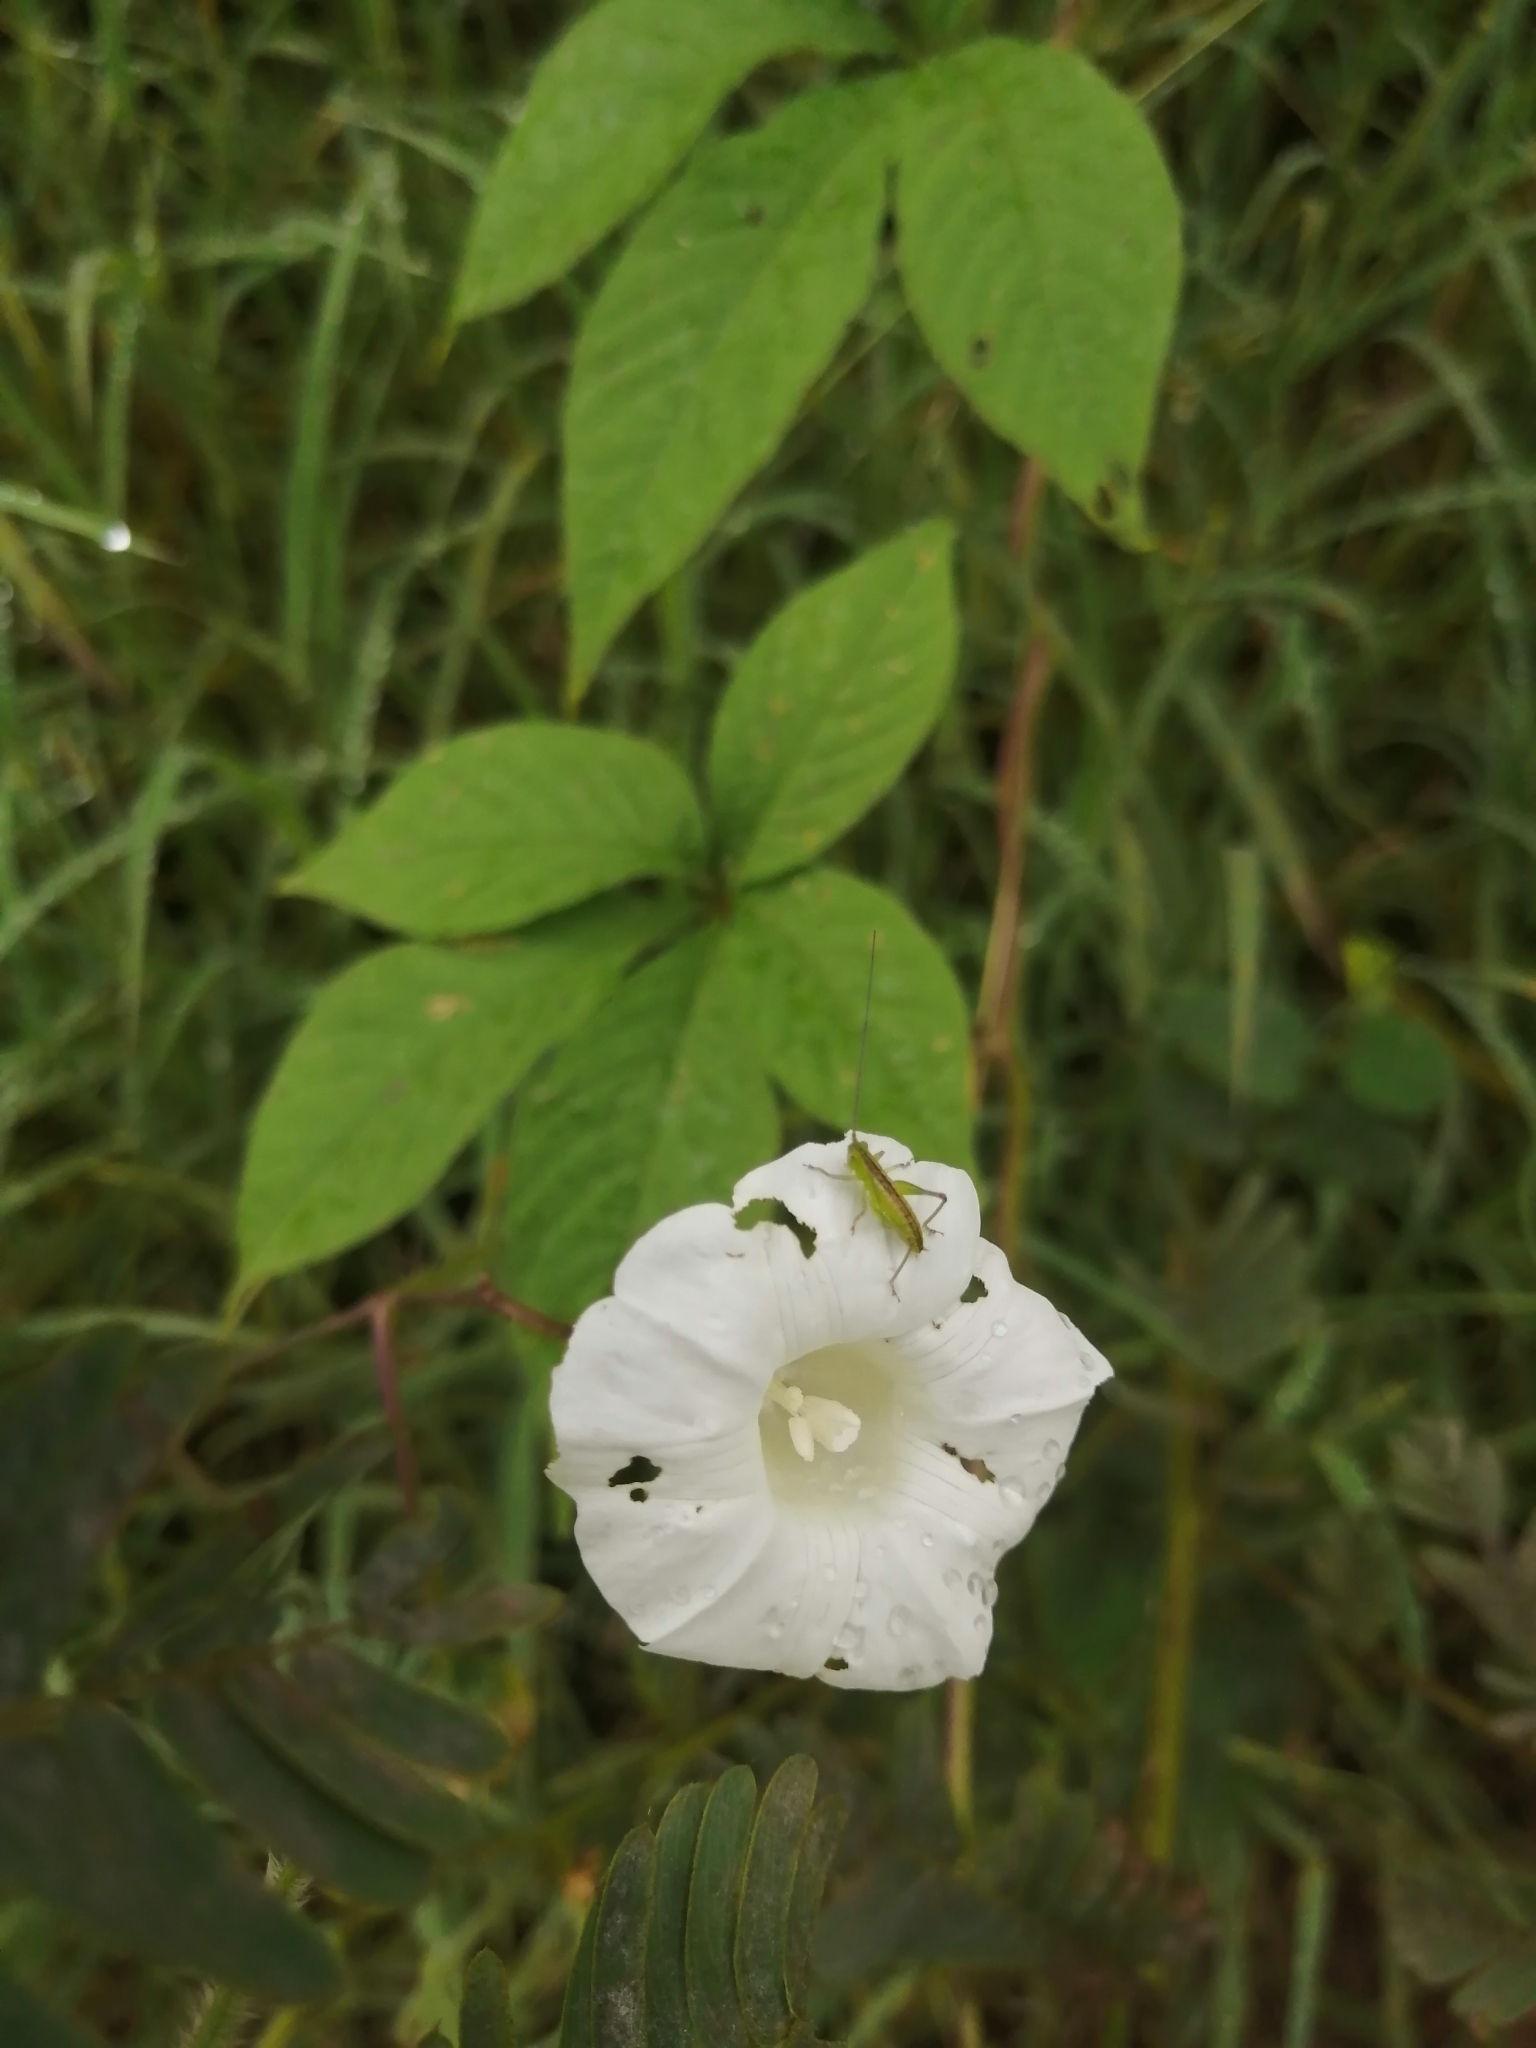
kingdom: Plantae
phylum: Tracheophyta
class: Magnoliopsida
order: Solanales
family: Convolvulaceae
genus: Distimake
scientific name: Distimake aegyptius
